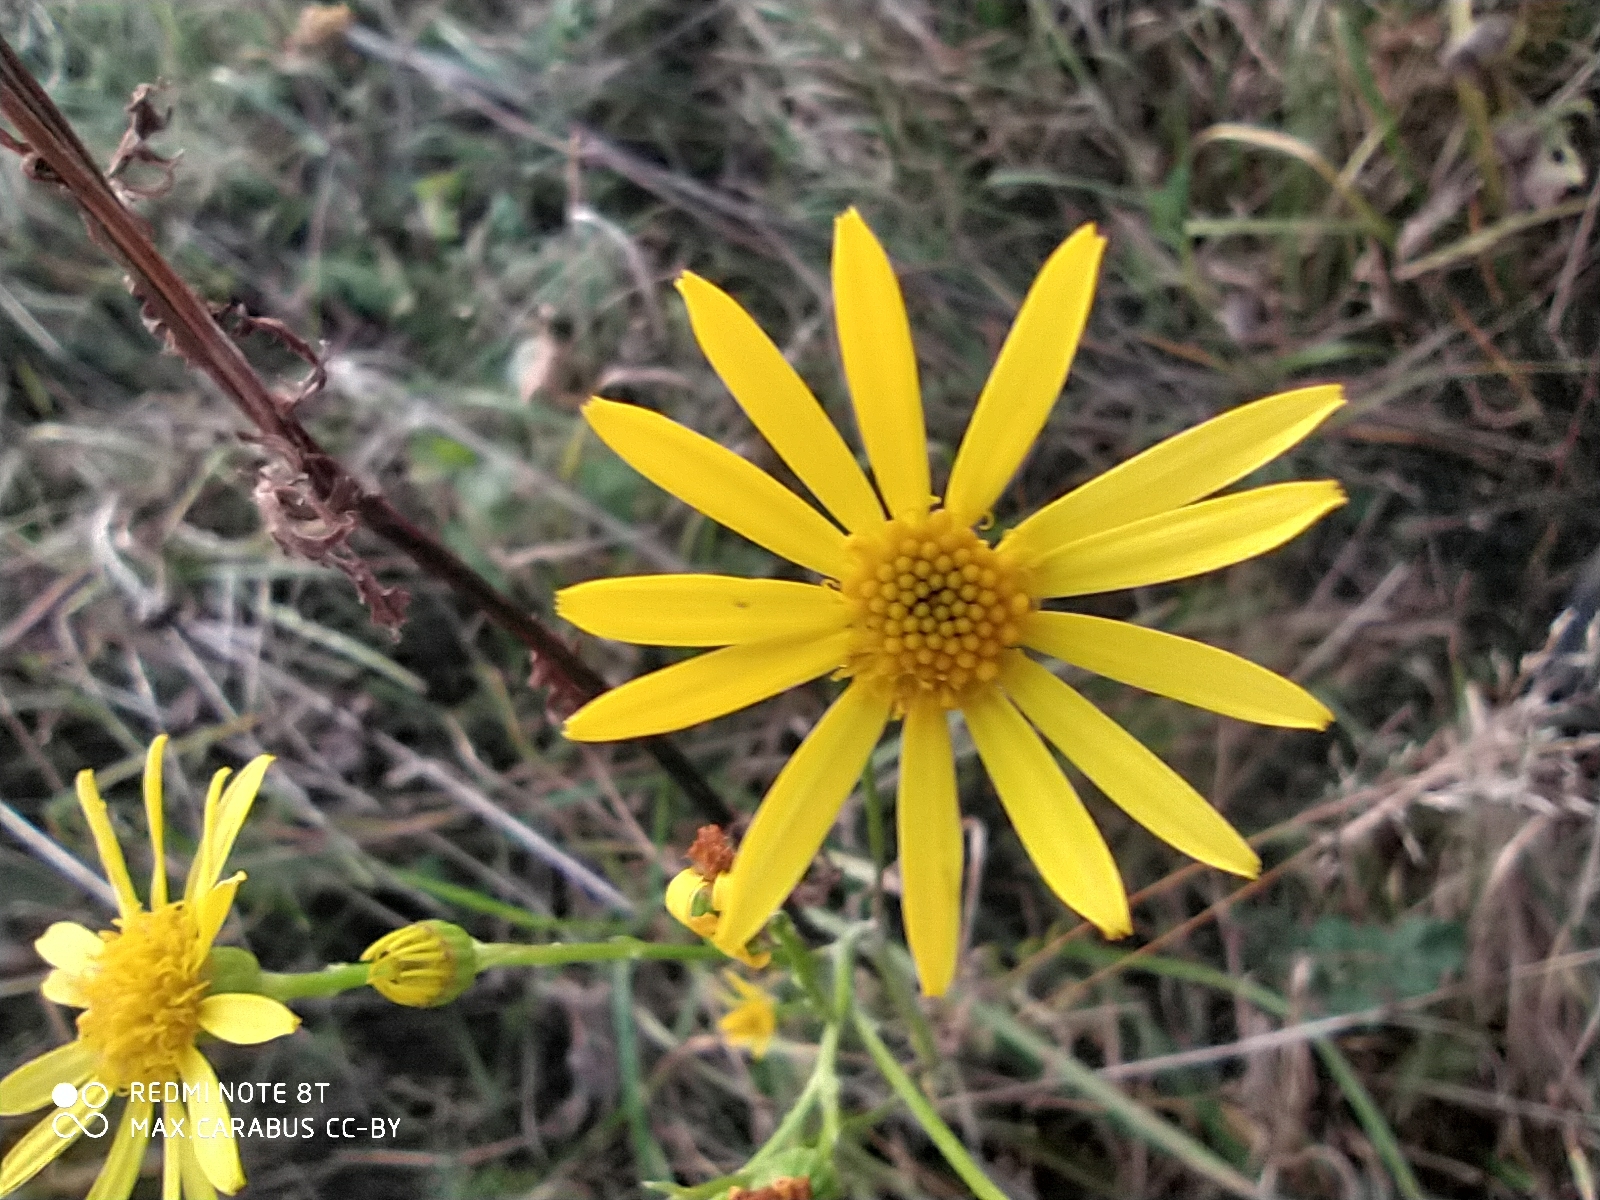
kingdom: Plantae
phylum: Tracheophyta
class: Magnoliopsida
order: Asterales
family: Asteraceae
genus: Jacobaea
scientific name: Jacobaea vulgaris
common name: Stinking willie
